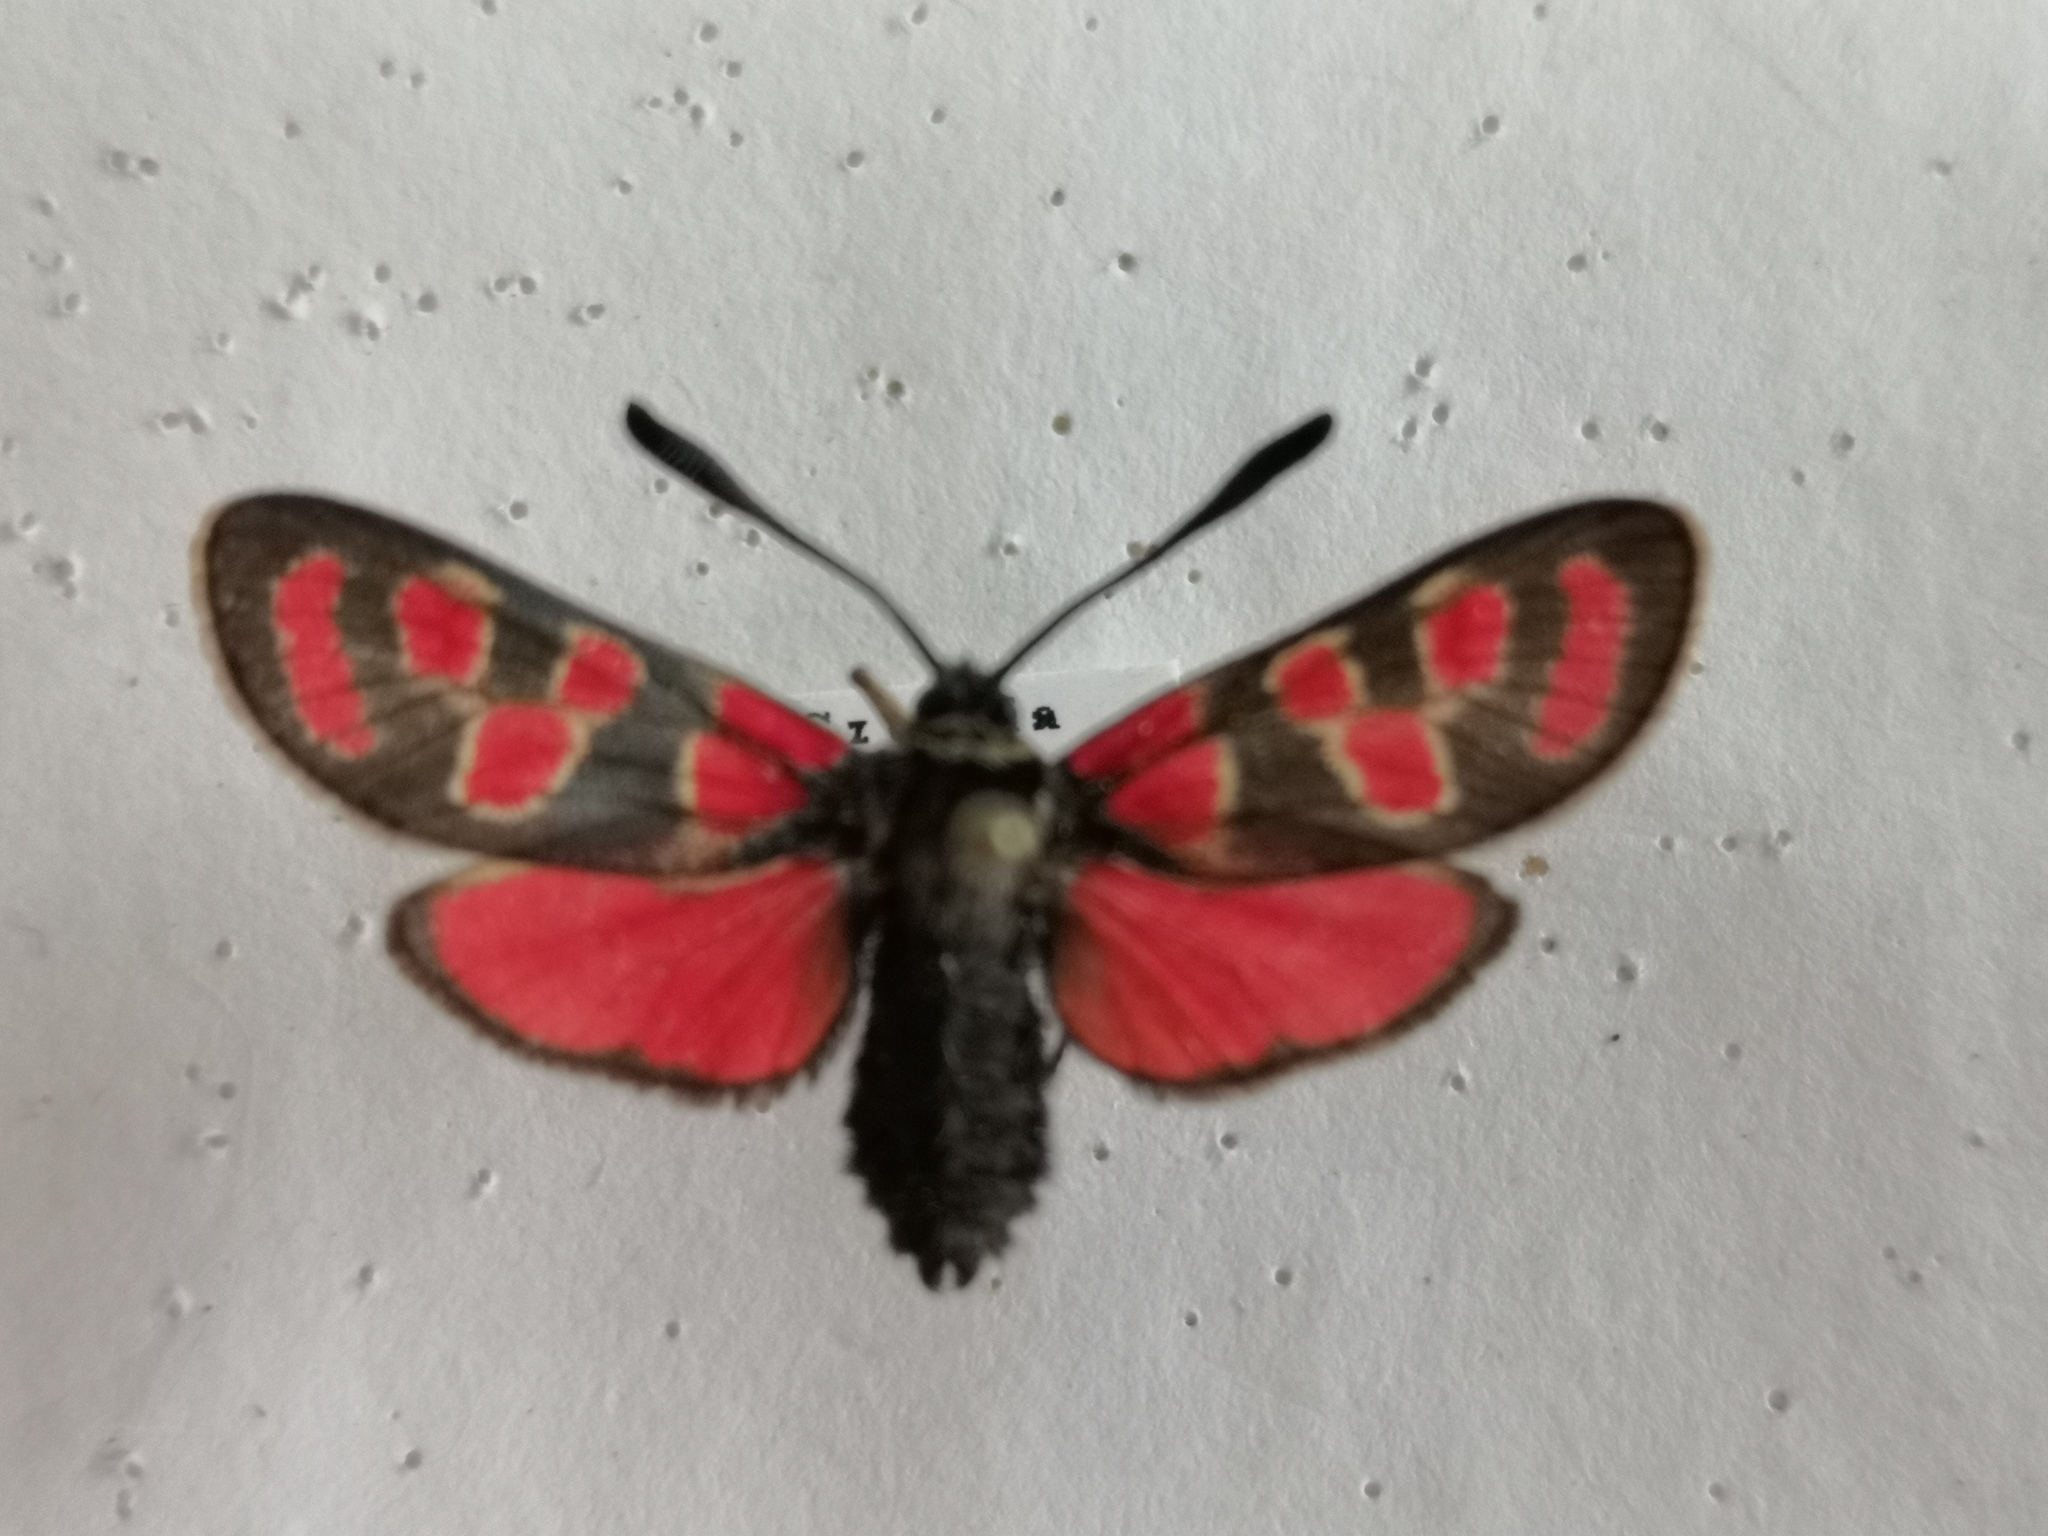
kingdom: Animalia
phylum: Arthropoda
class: Insecta
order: Lepidoptera
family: Zygaenidae
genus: Zygaena
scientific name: Zygaena carniolica
